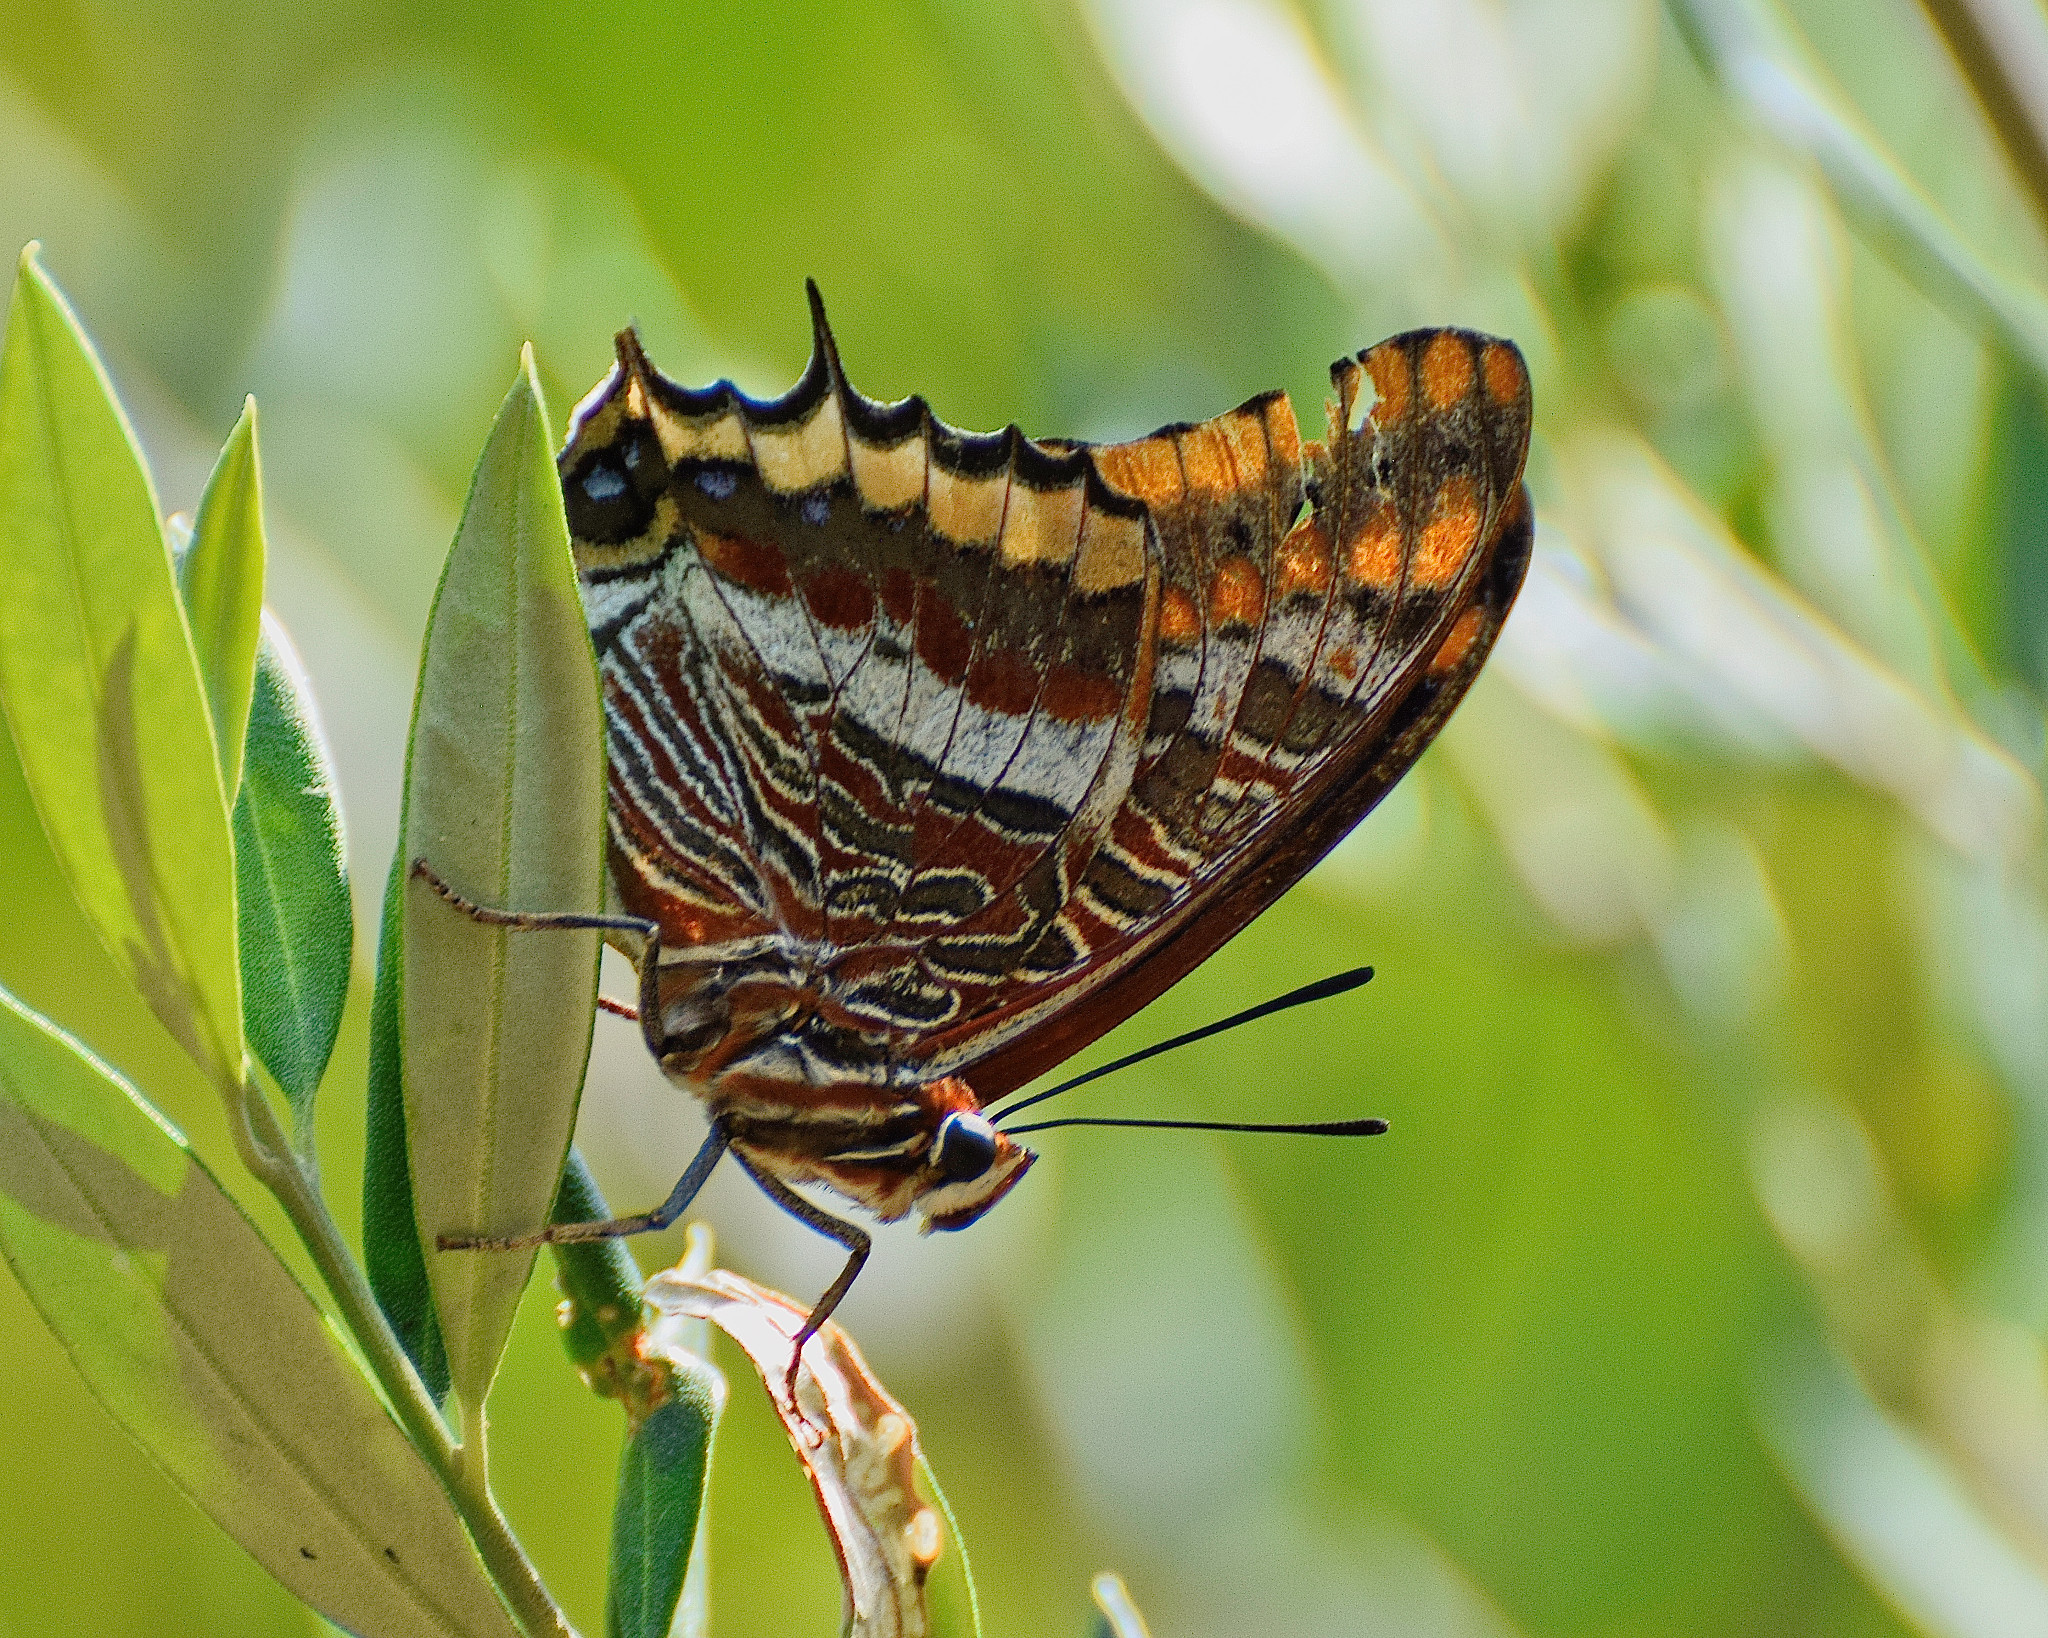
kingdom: Animalia
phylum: Arthropoda
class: Insecta
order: Lepidoptera
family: Nymphalidae
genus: Charaxes
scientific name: Charaxes jasius
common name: Two tailed pasha
